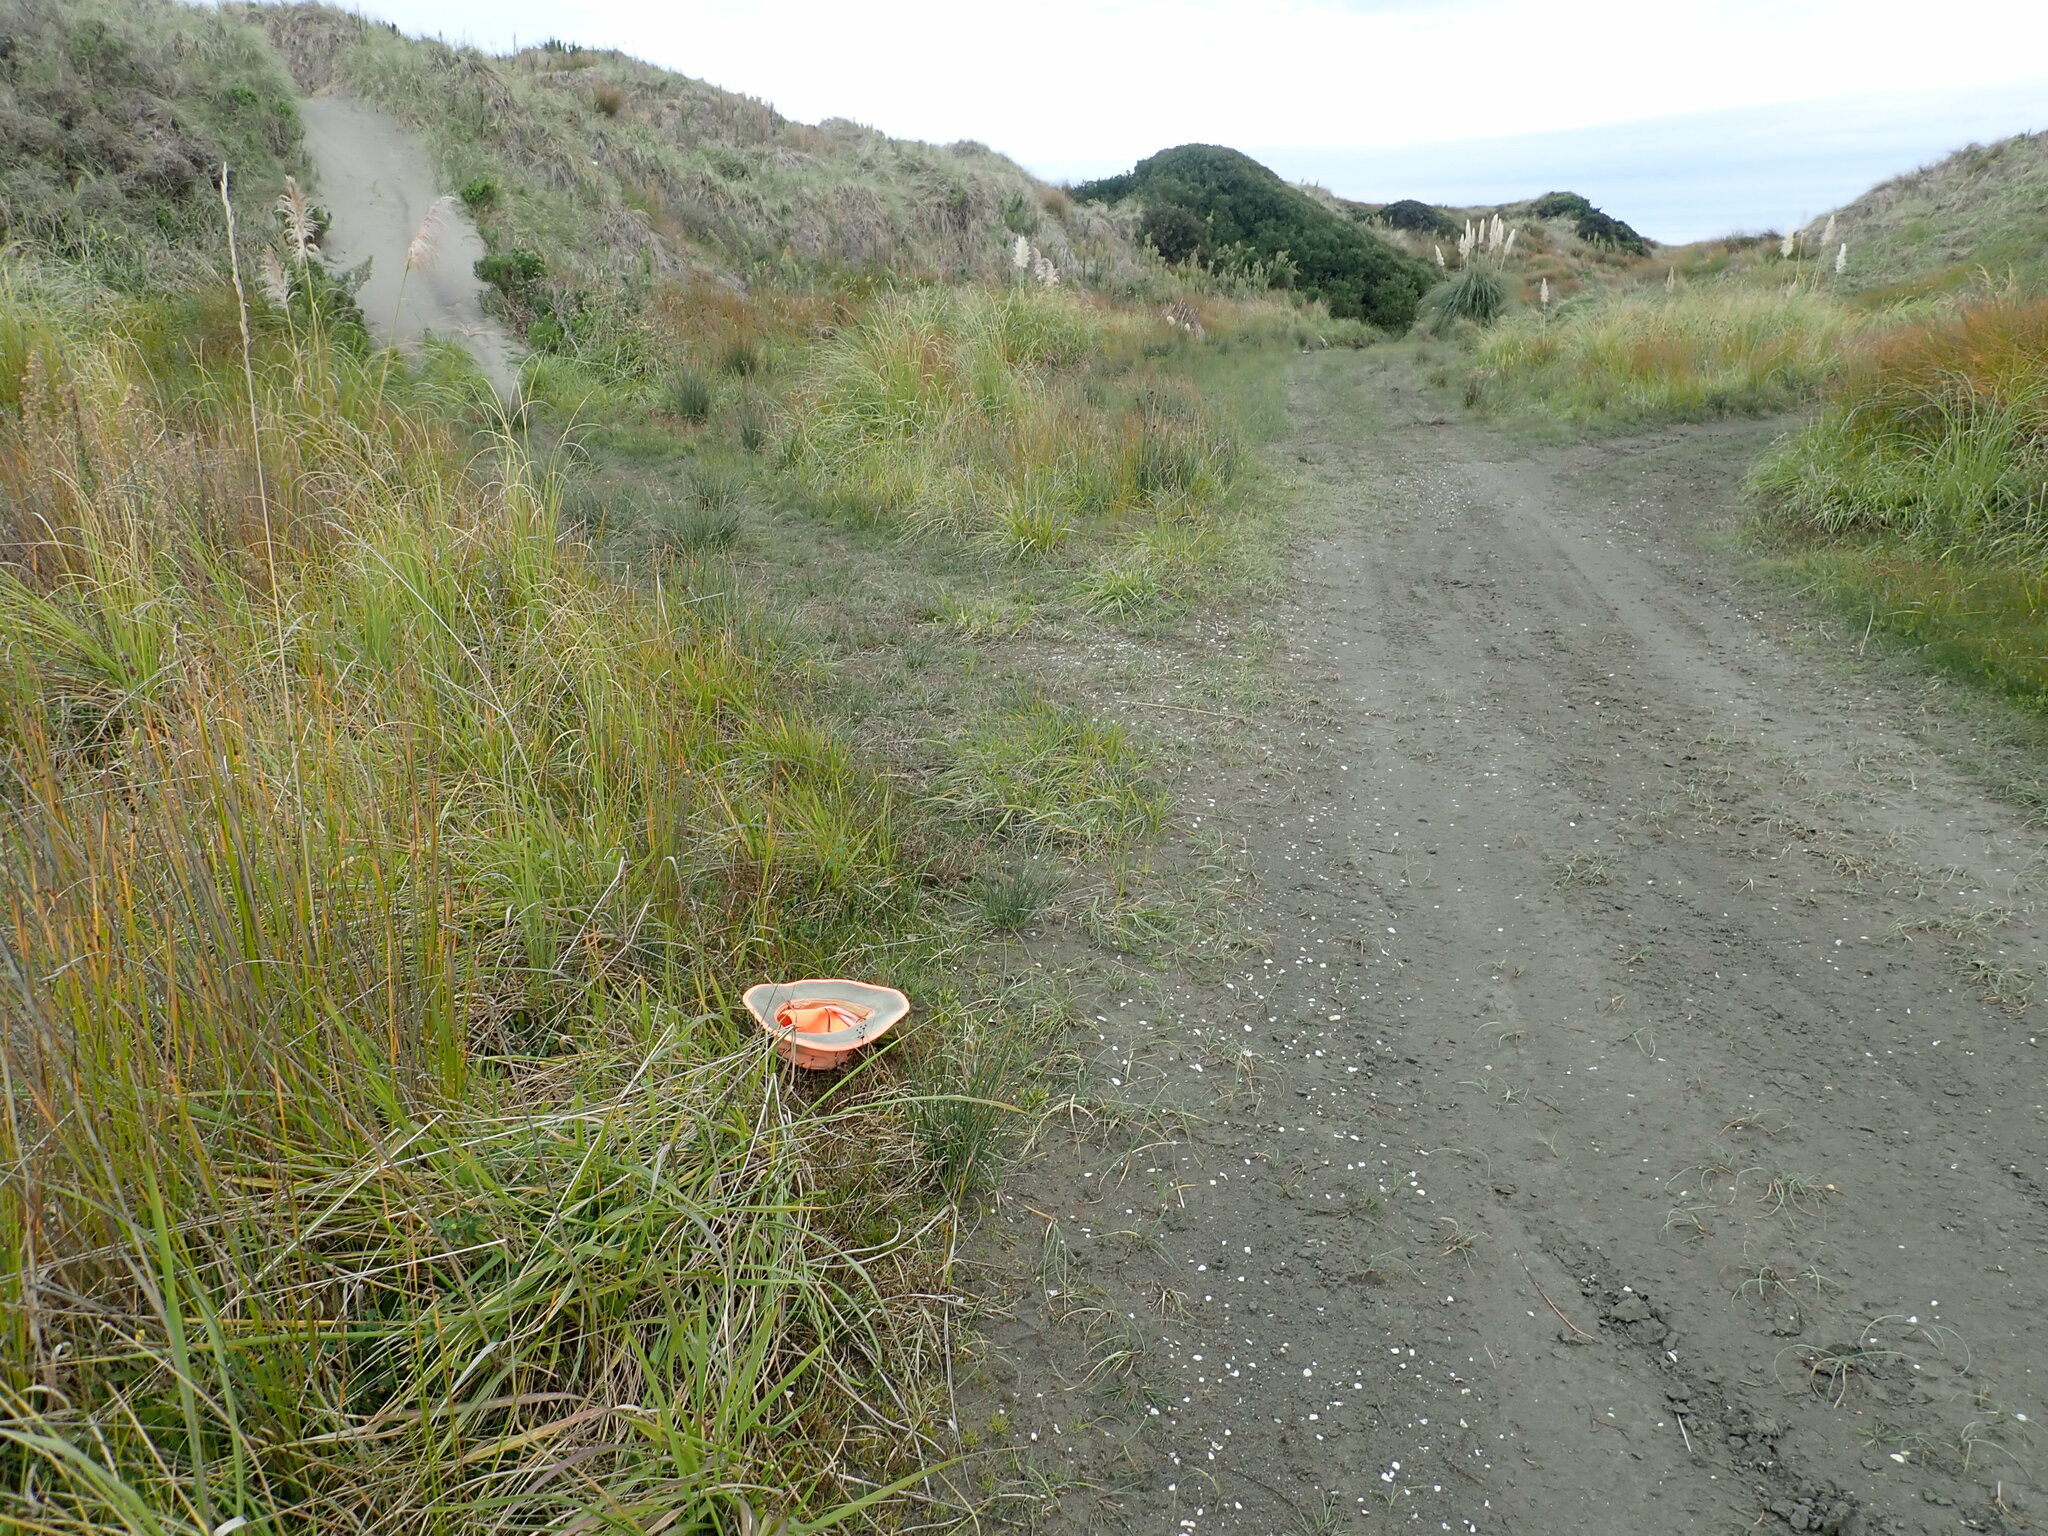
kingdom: Plantae
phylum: Tracheophyta
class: Magnoliopsida
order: Lamiales
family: Plantaginaceae
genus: Plantago
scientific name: Plantago coronopus
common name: Buck's-horn plantain
